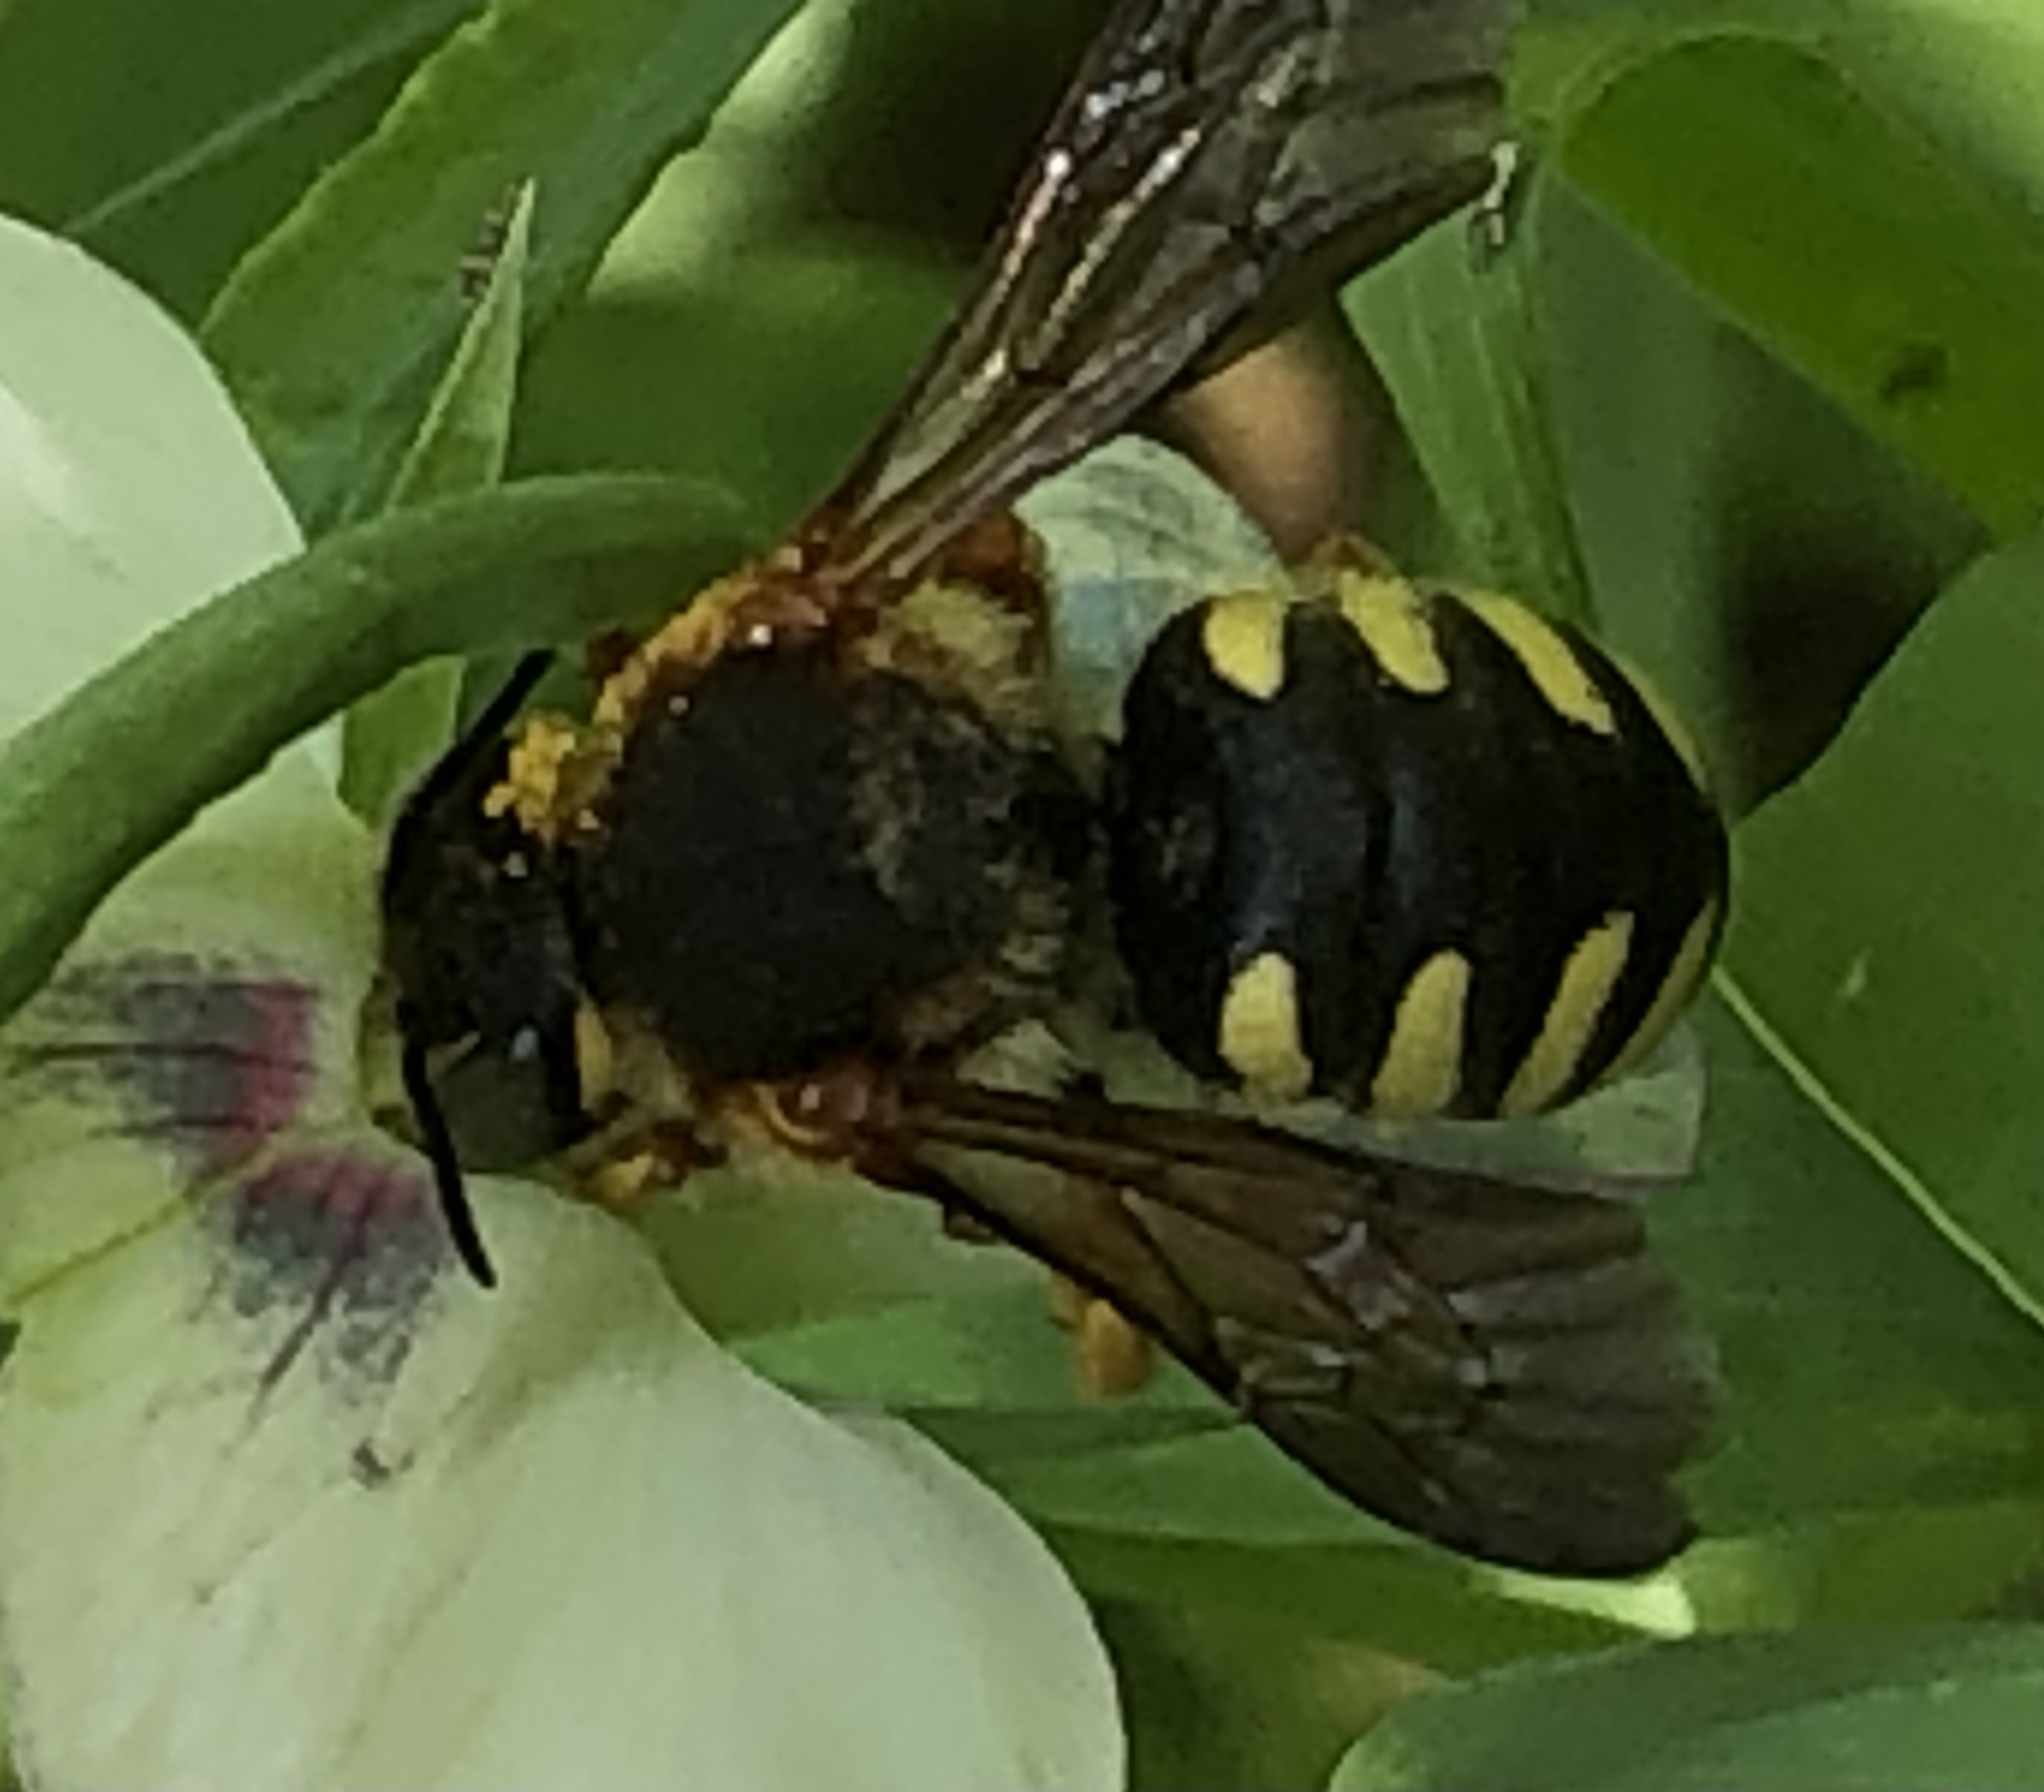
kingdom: Animalia
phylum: Arthropoda
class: Insecta
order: Hymenoptera
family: Megachilidae
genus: Rhodanthidium
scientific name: Rhodanthidium septemdentatum
